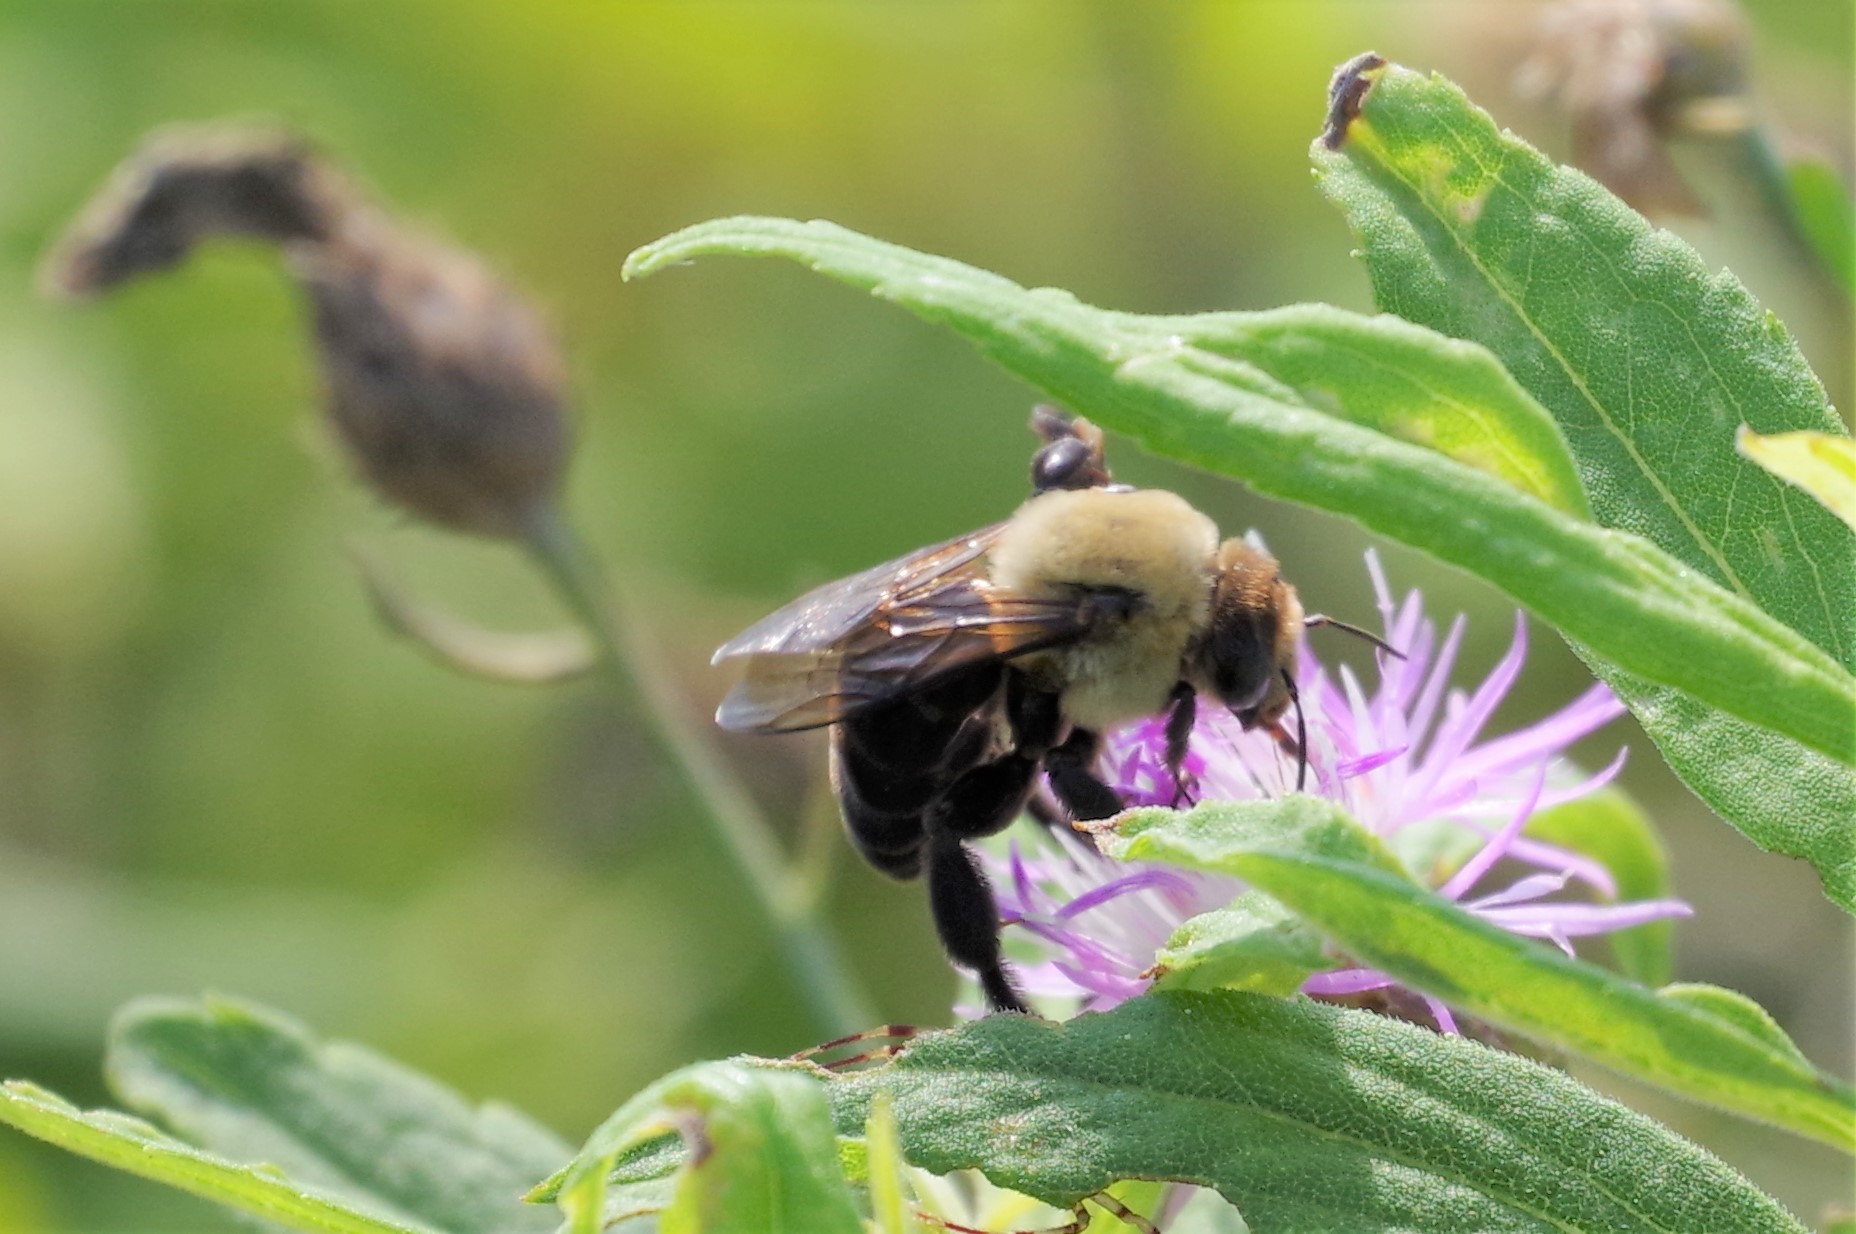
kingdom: Animalia
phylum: Arthropoda
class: Insecta
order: Hymenoptera
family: Apidae
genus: Ptilothrix
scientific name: Ptilothrix bombiformis
